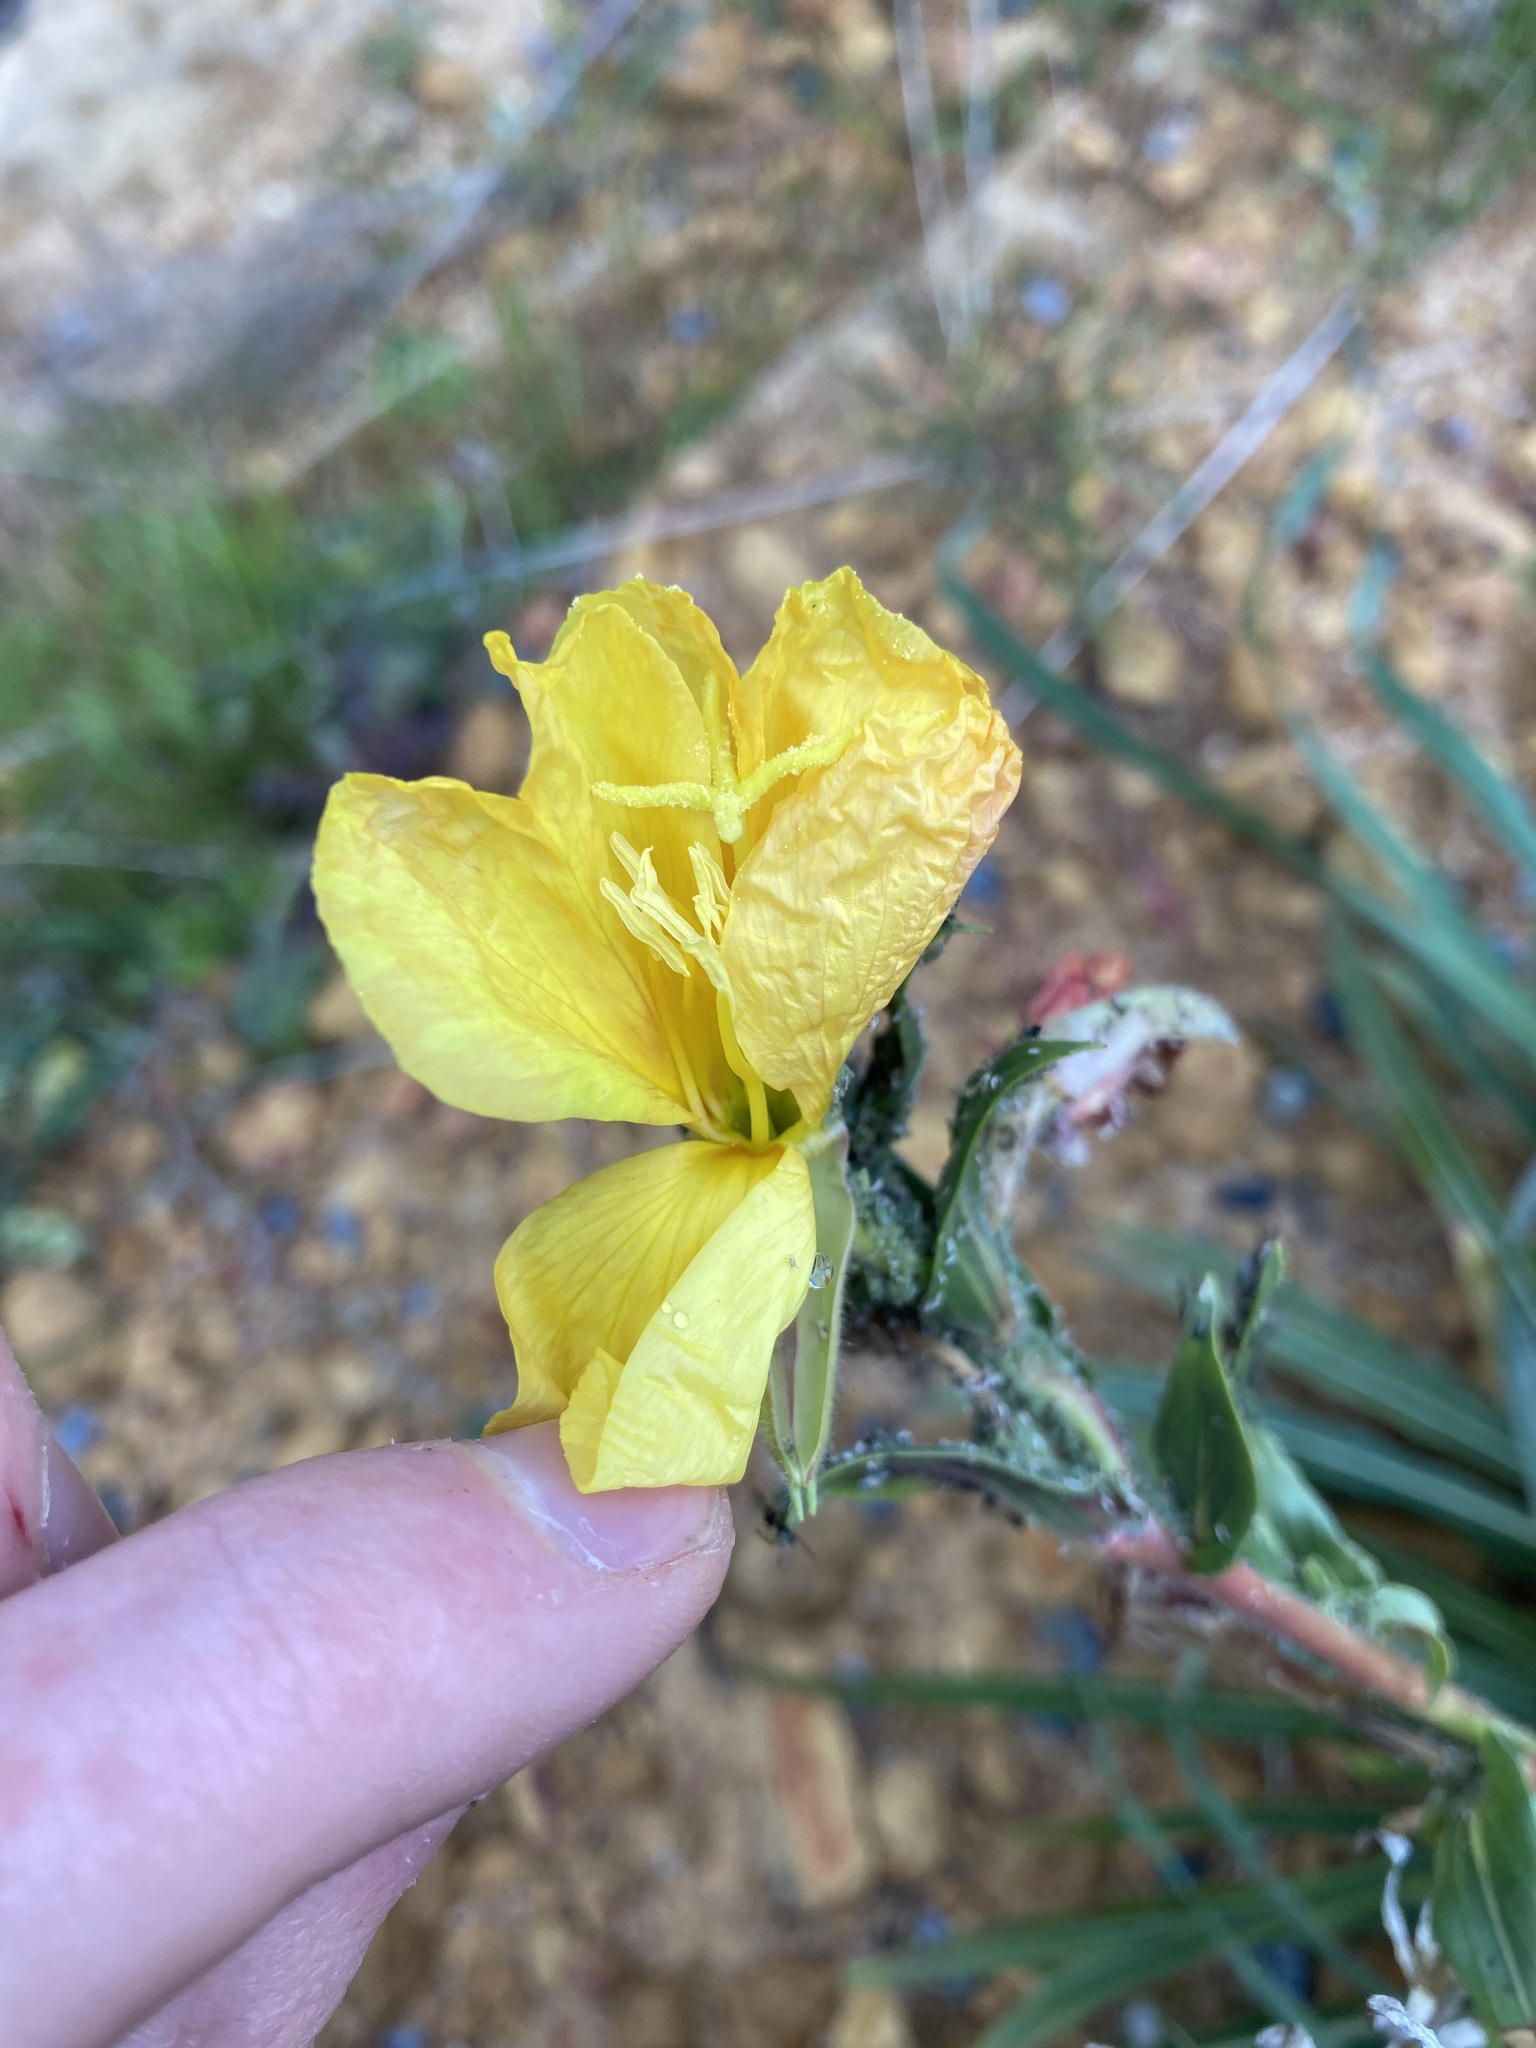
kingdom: Plantae
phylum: Tracheophyta
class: Magnoliopsida
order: Myrtales
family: Onagraceae
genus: Oenothera
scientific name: Oenothera stricta
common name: Fragrant evening-primrose
